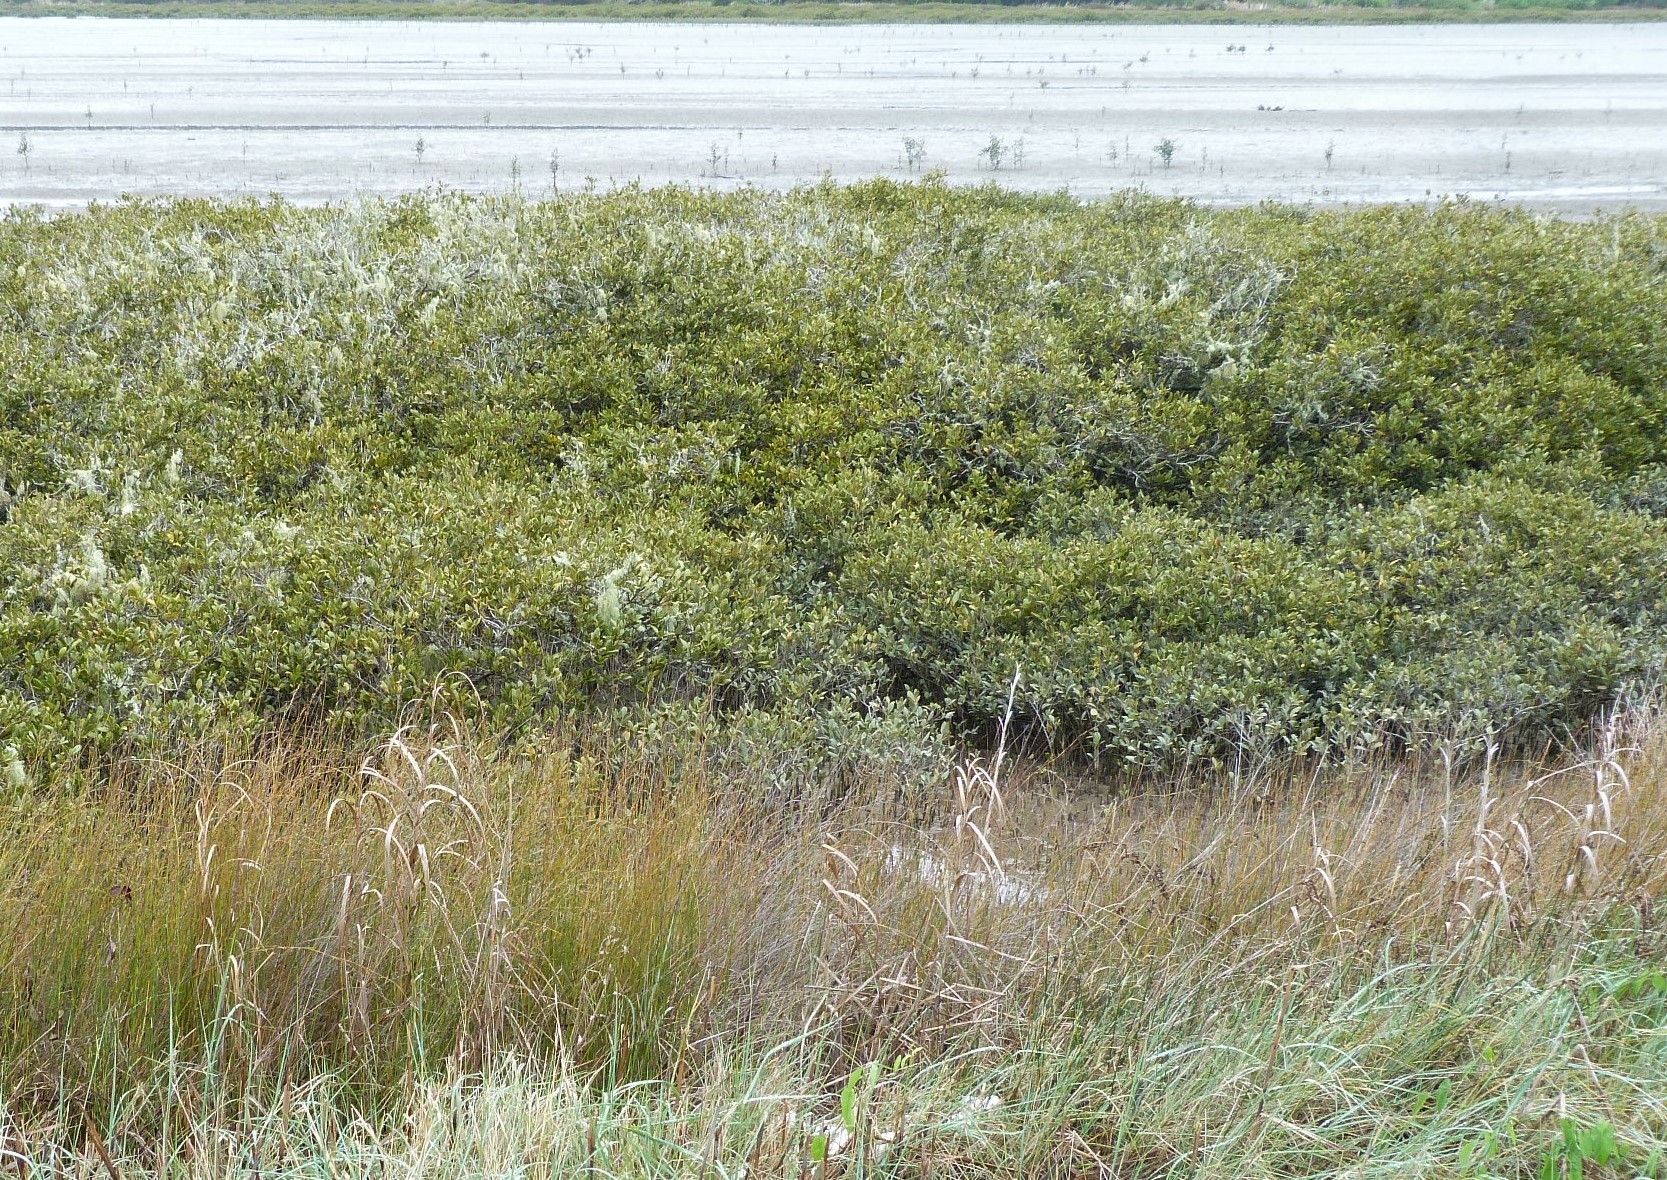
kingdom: Plantae
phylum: Tracheophyta
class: Liliopsida
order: Poales
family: Cyperaceae
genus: Bolboschoenus
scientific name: Bolboschoenus caldwellii
